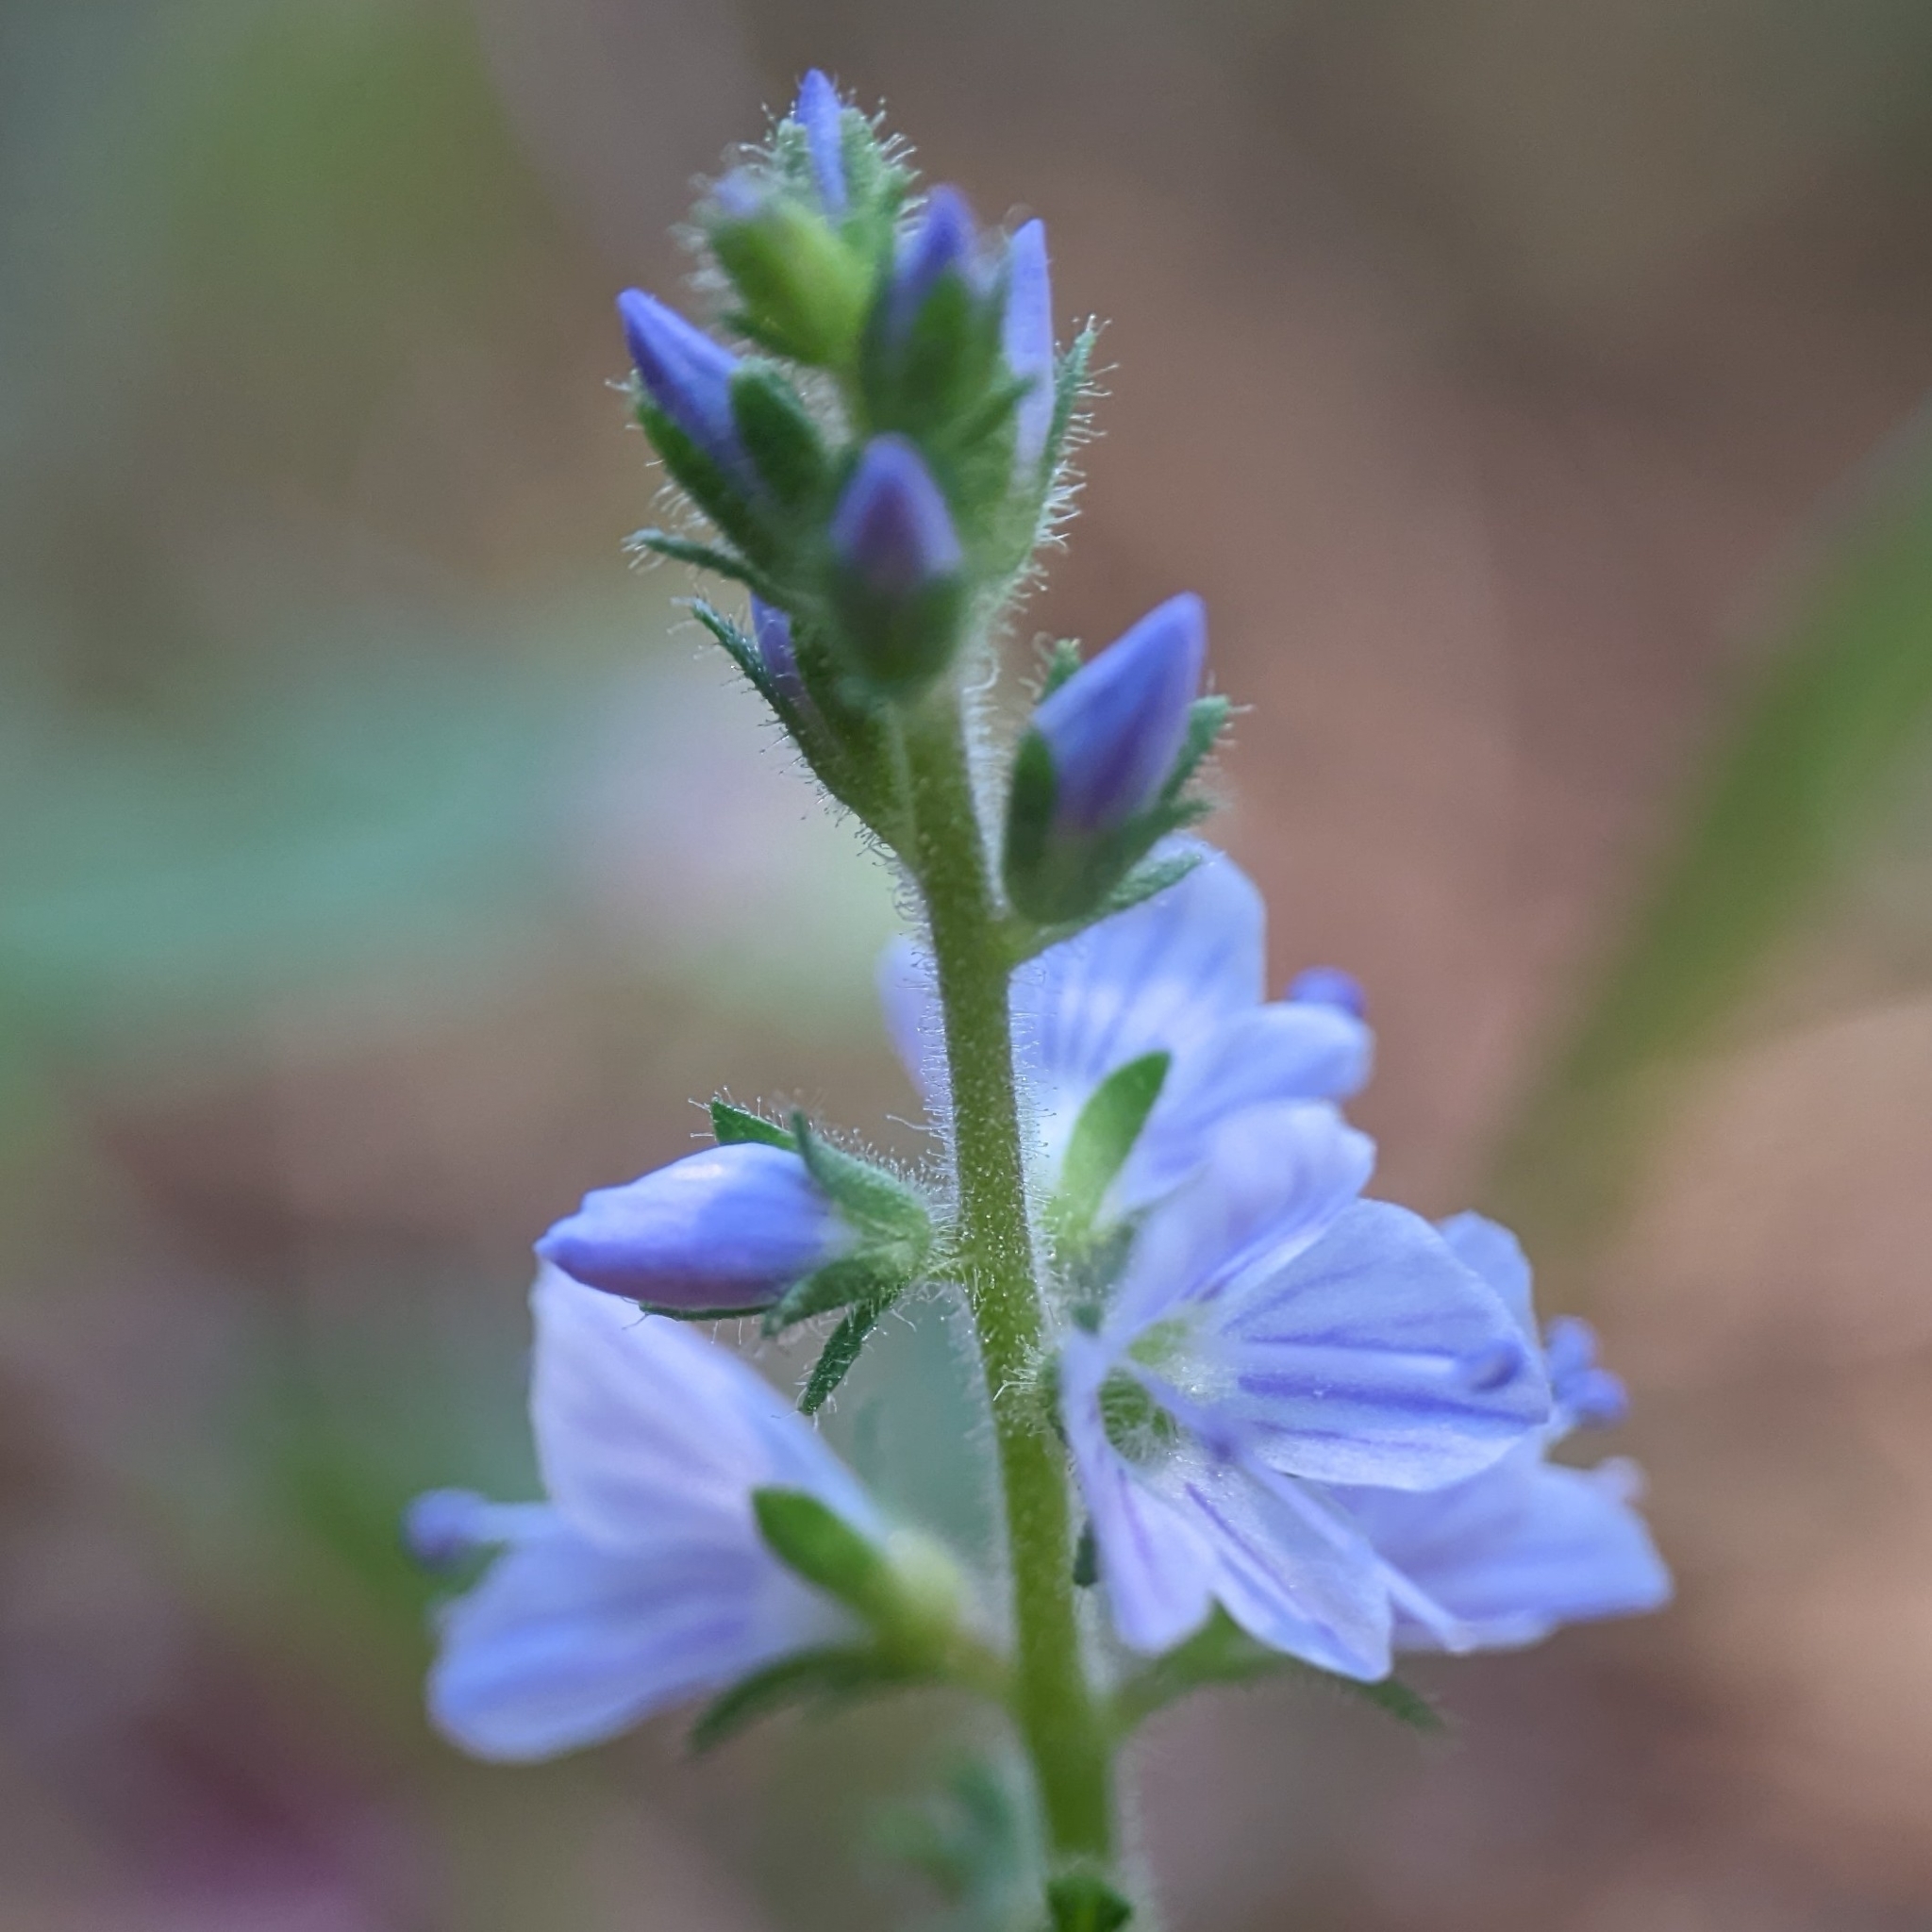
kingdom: Plantae
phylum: Tracheophyta
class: Magnoliopsida
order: Lamiales
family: Plantaginaceae
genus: Veronica
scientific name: Veronica officinalis
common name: Common speedwell
